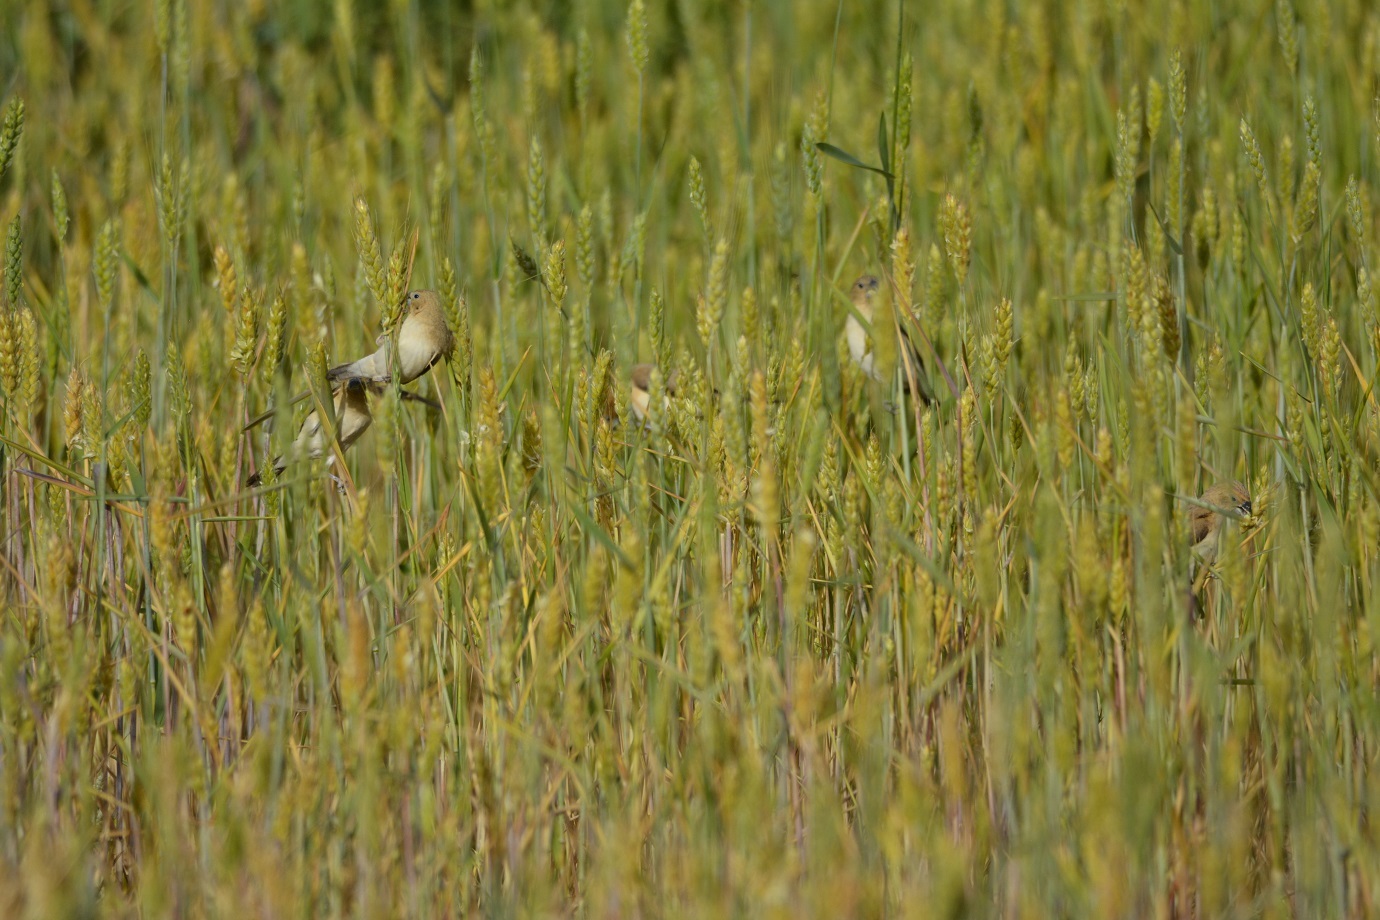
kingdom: Animalia
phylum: Chordata
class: Aves
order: Passeriformes
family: Estrildidae
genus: Euodice
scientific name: Euodice cantans
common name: African silverbill
